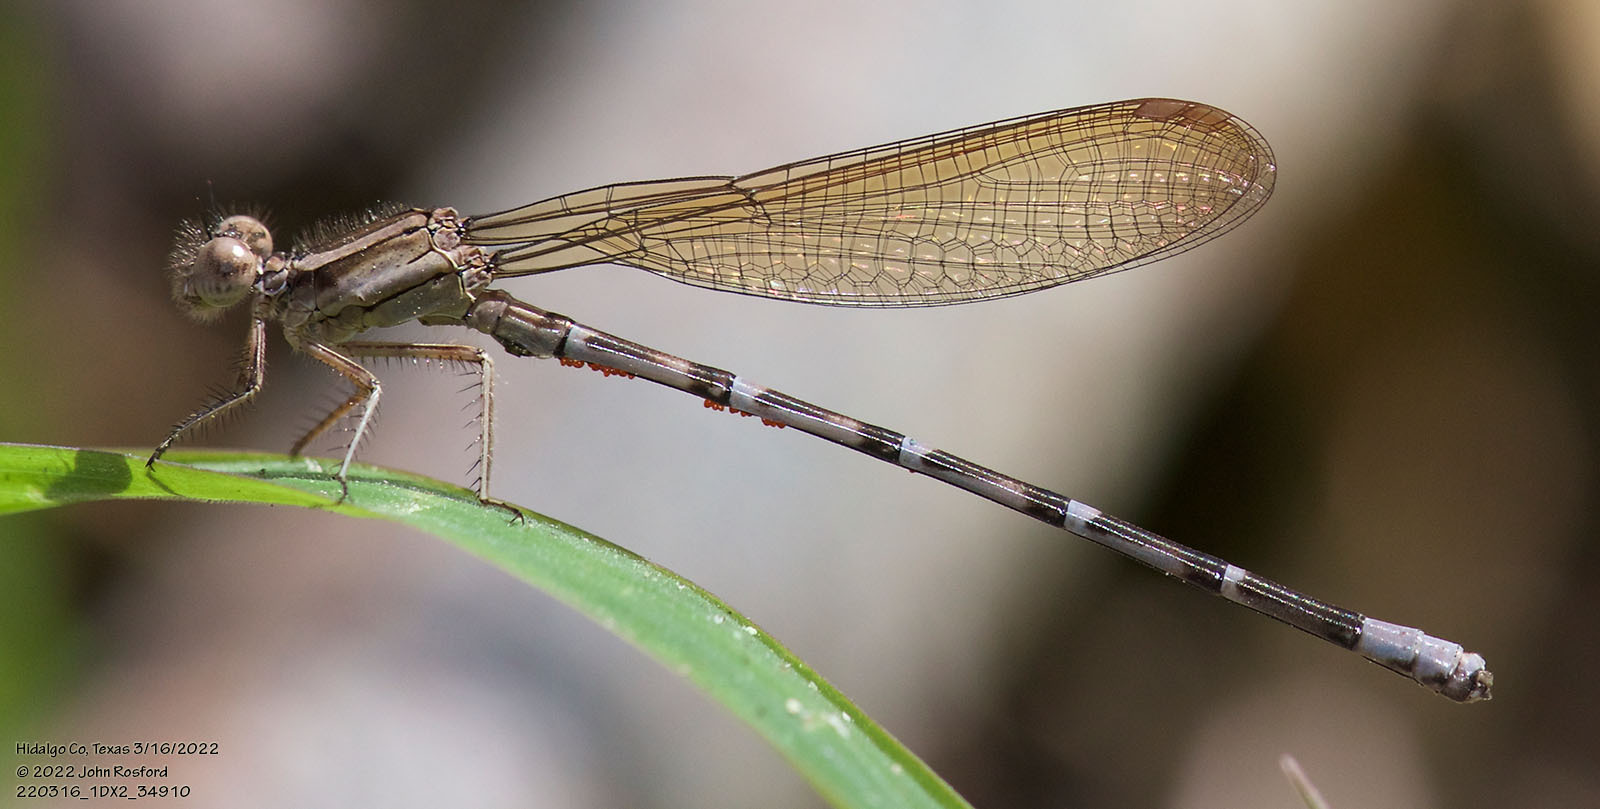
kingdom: Animalia
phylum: Arthropoda
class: Insecta
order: Odonata
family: Coenagrionidae
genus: Argia
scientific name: Argia sedula
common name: Blue-ringed dancer
